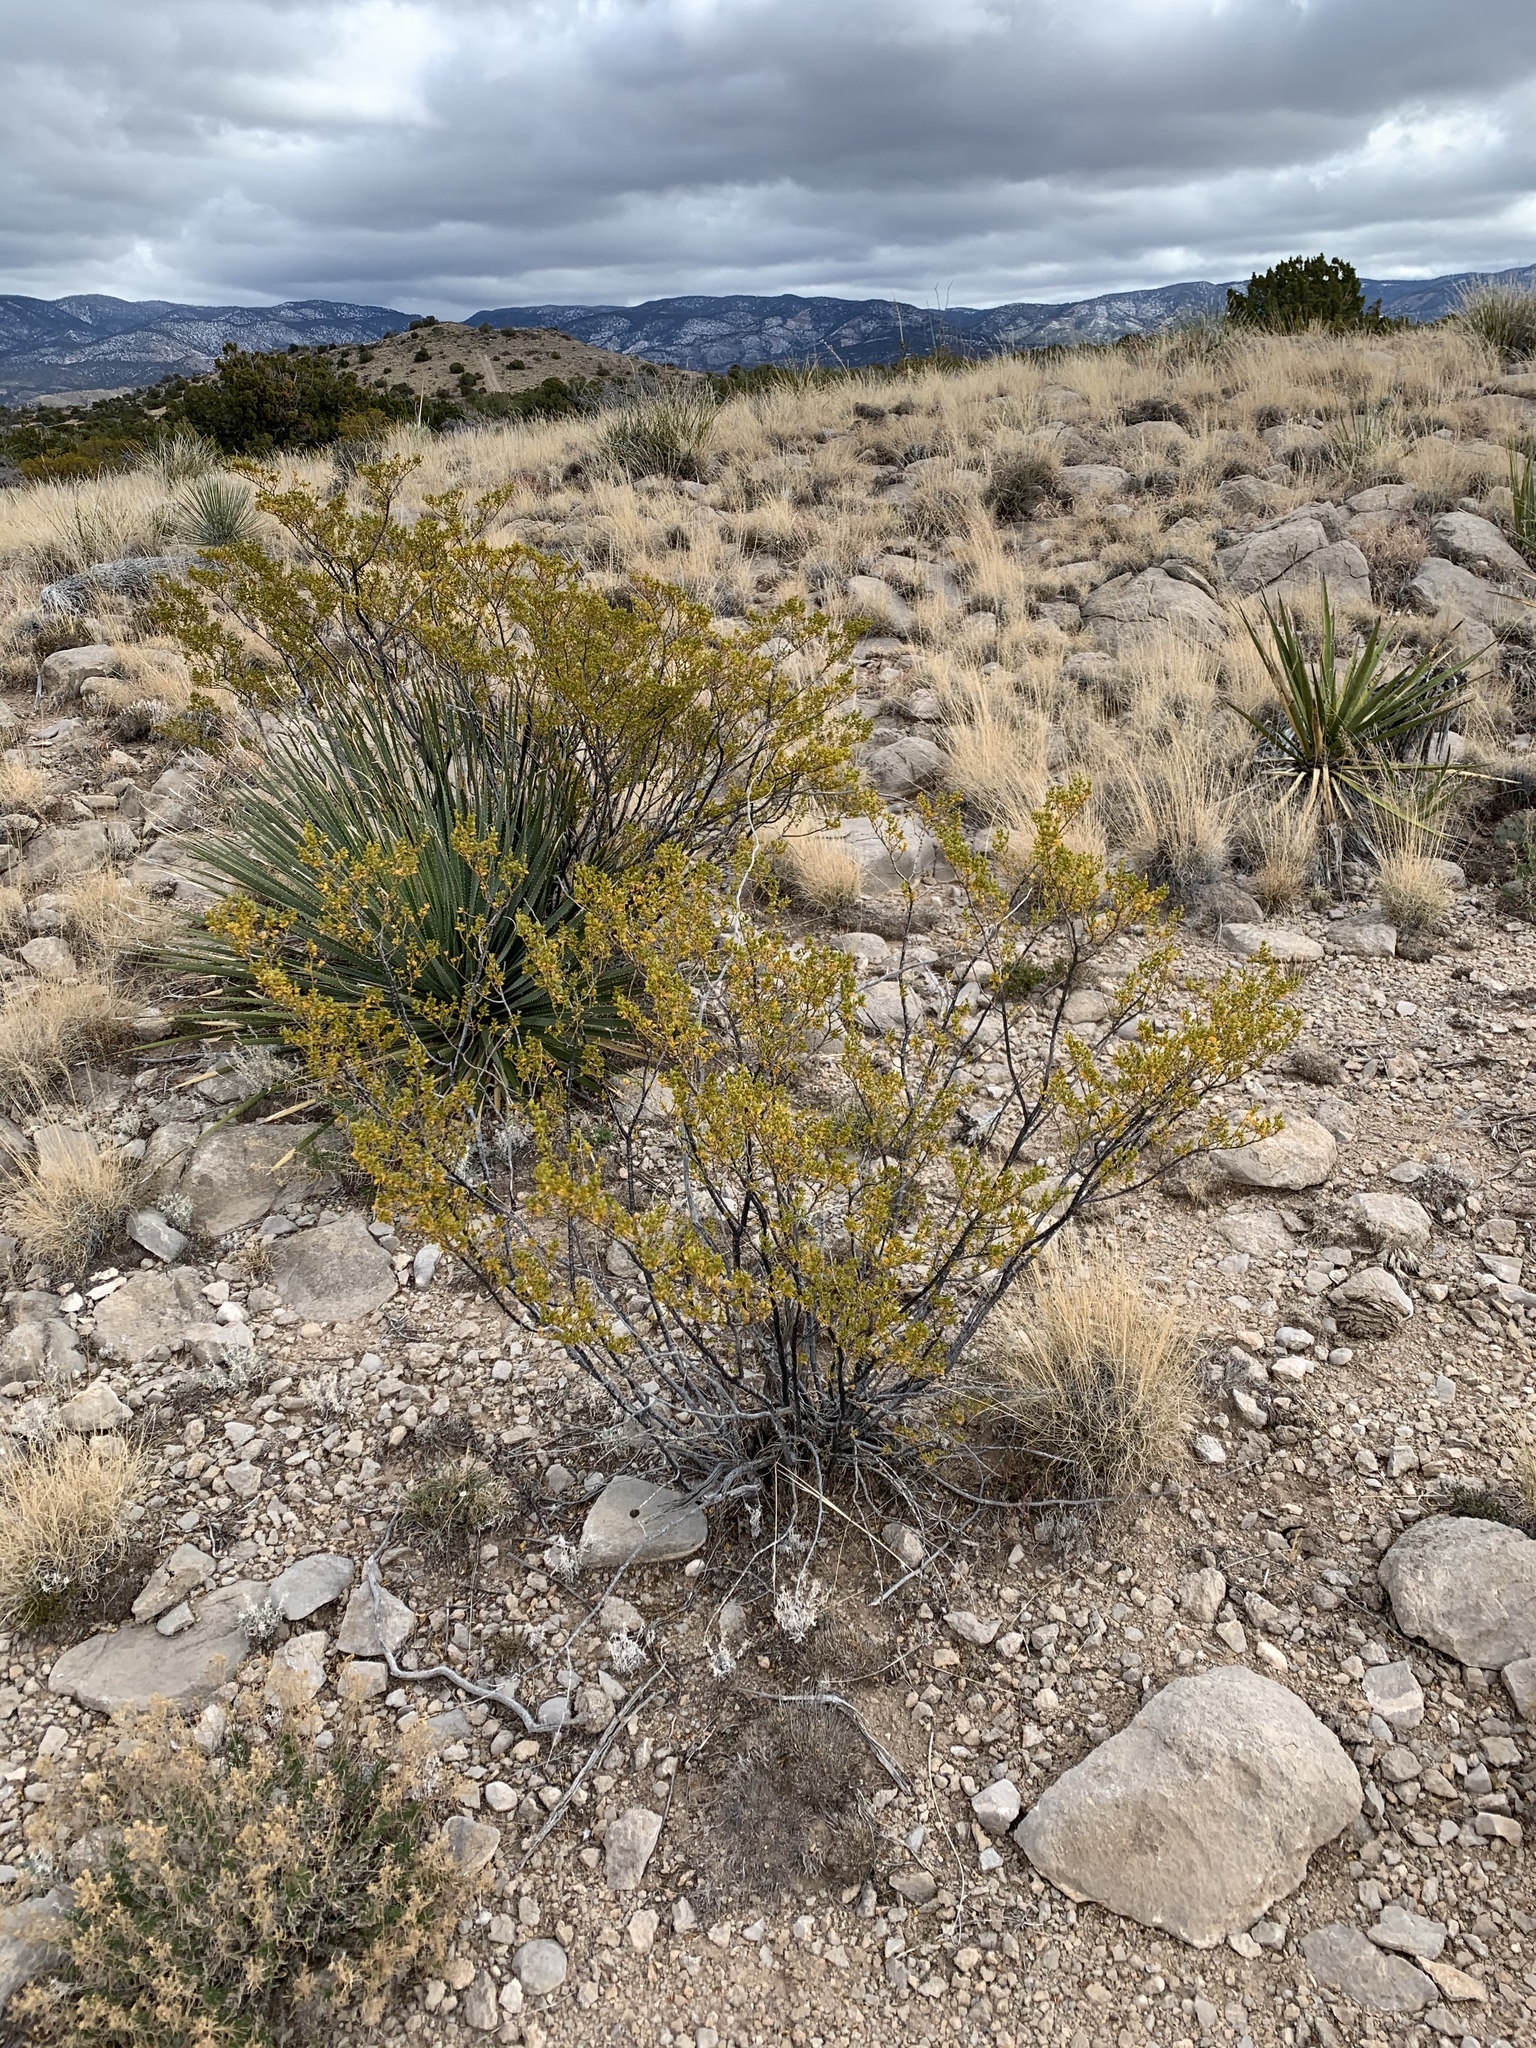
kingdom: Plantae
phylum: Tracheophyta
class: Magnoliopsida
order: Zygophyllales
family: Zygophyllaceae
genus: Larrea
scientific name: Larrea tridentata
